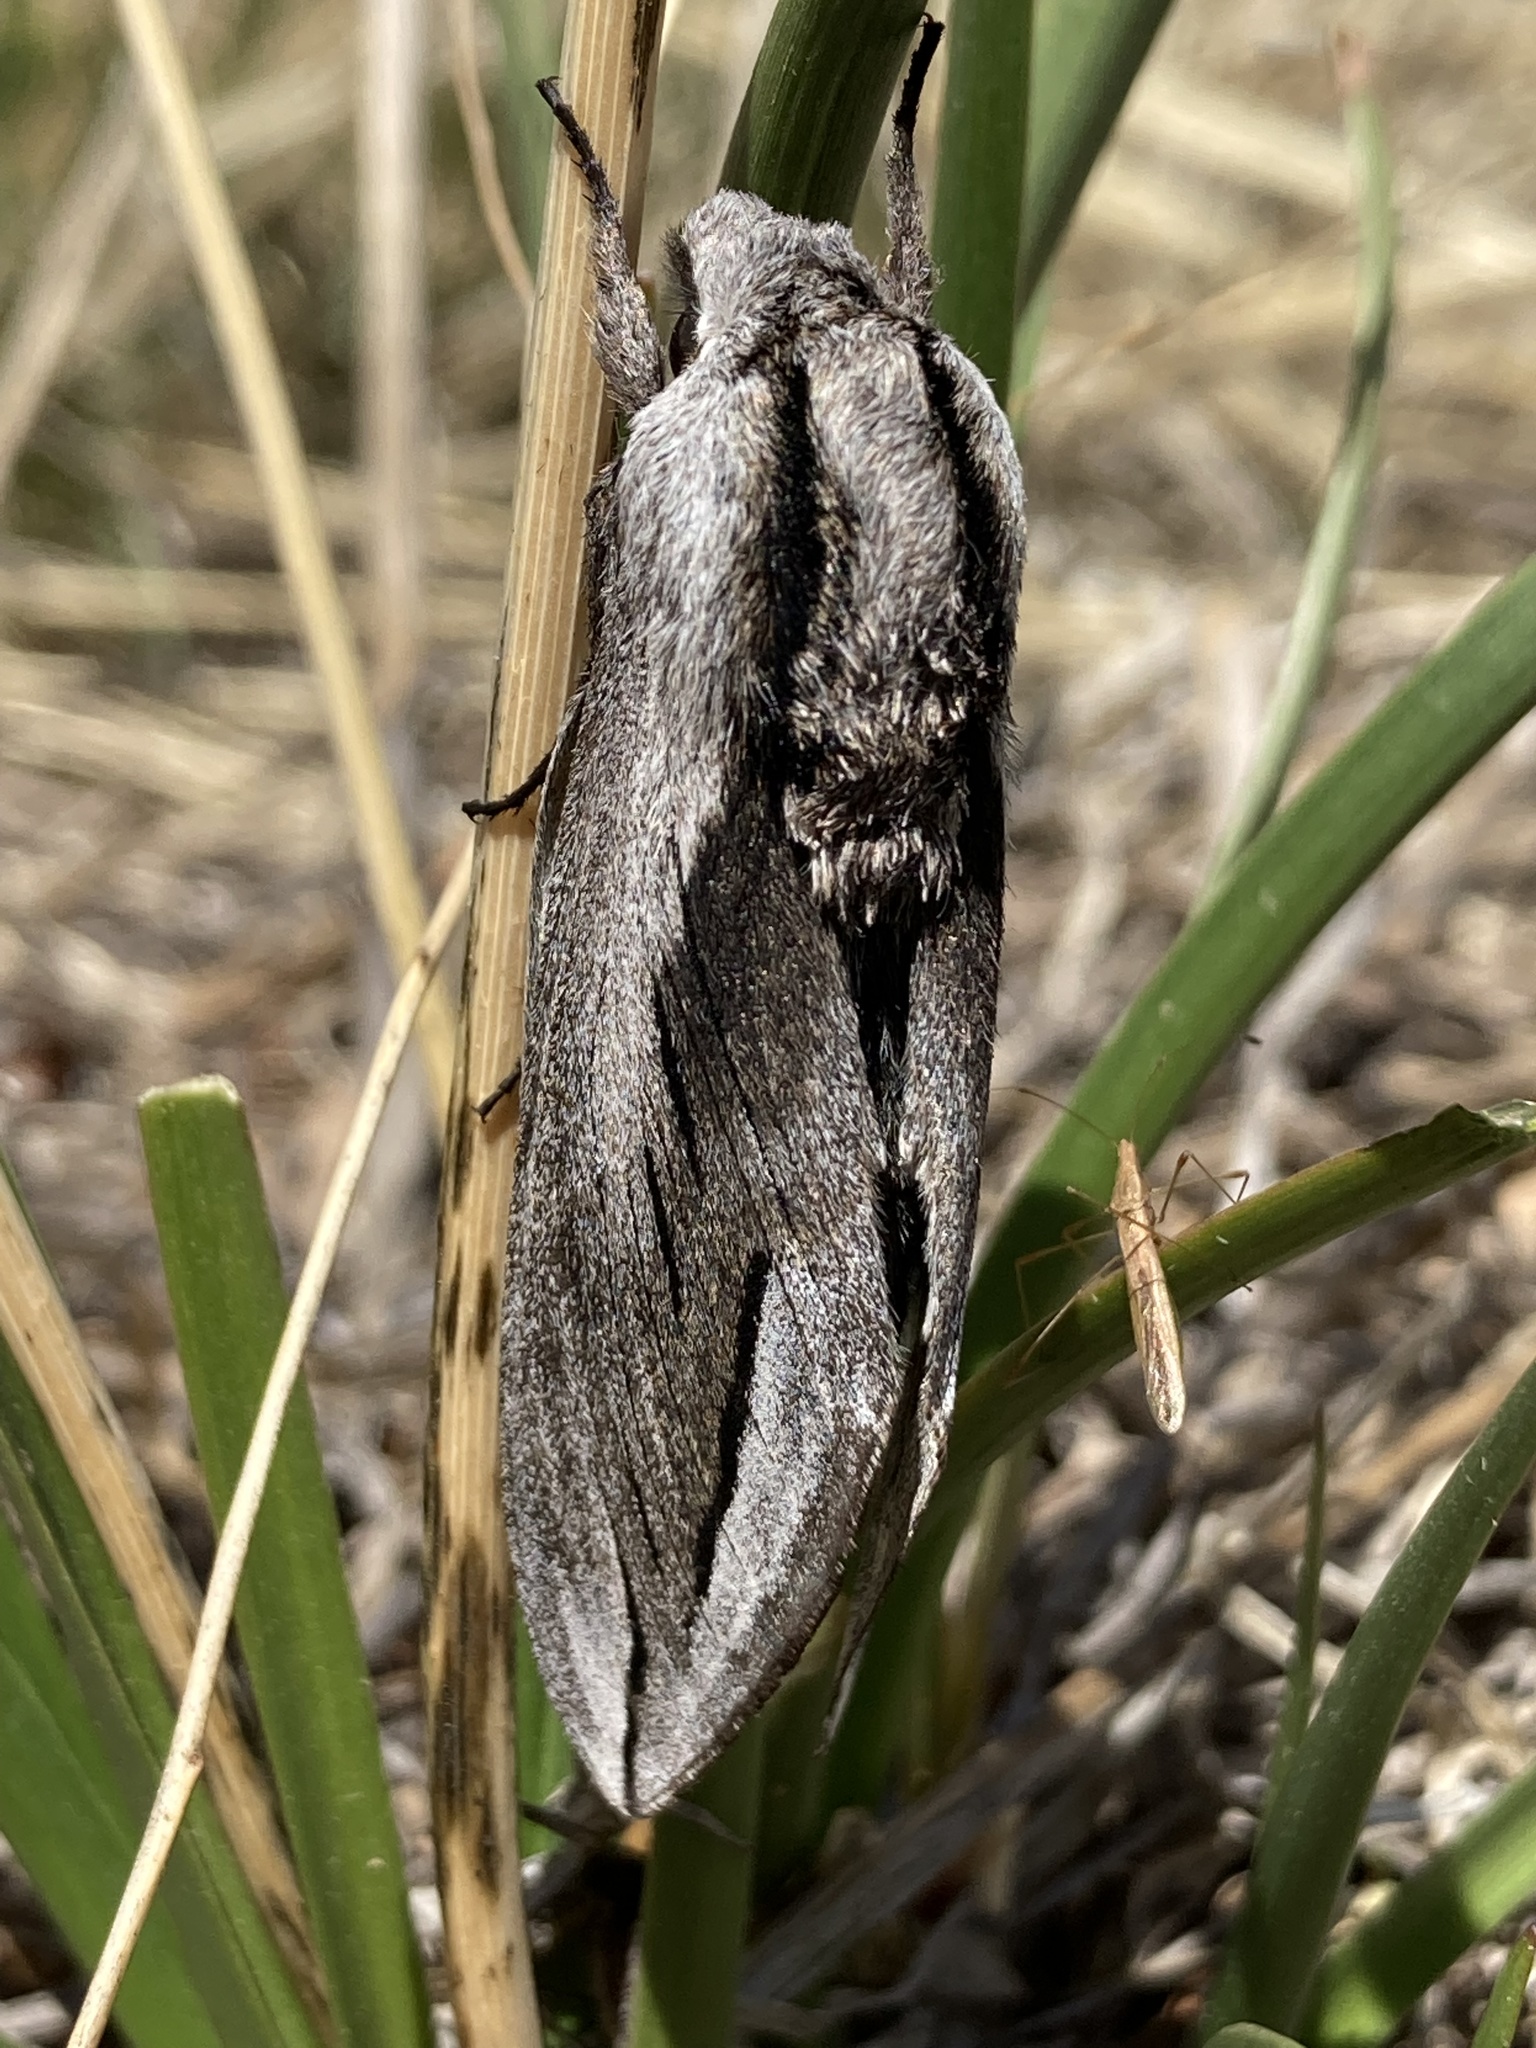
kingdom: Animalia
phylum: Arthropoda
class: Insecta
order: Lepidoptera
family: Sphingidae
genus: Sphinx
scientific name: Sphinx vashti
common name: Snowberry sphinx
